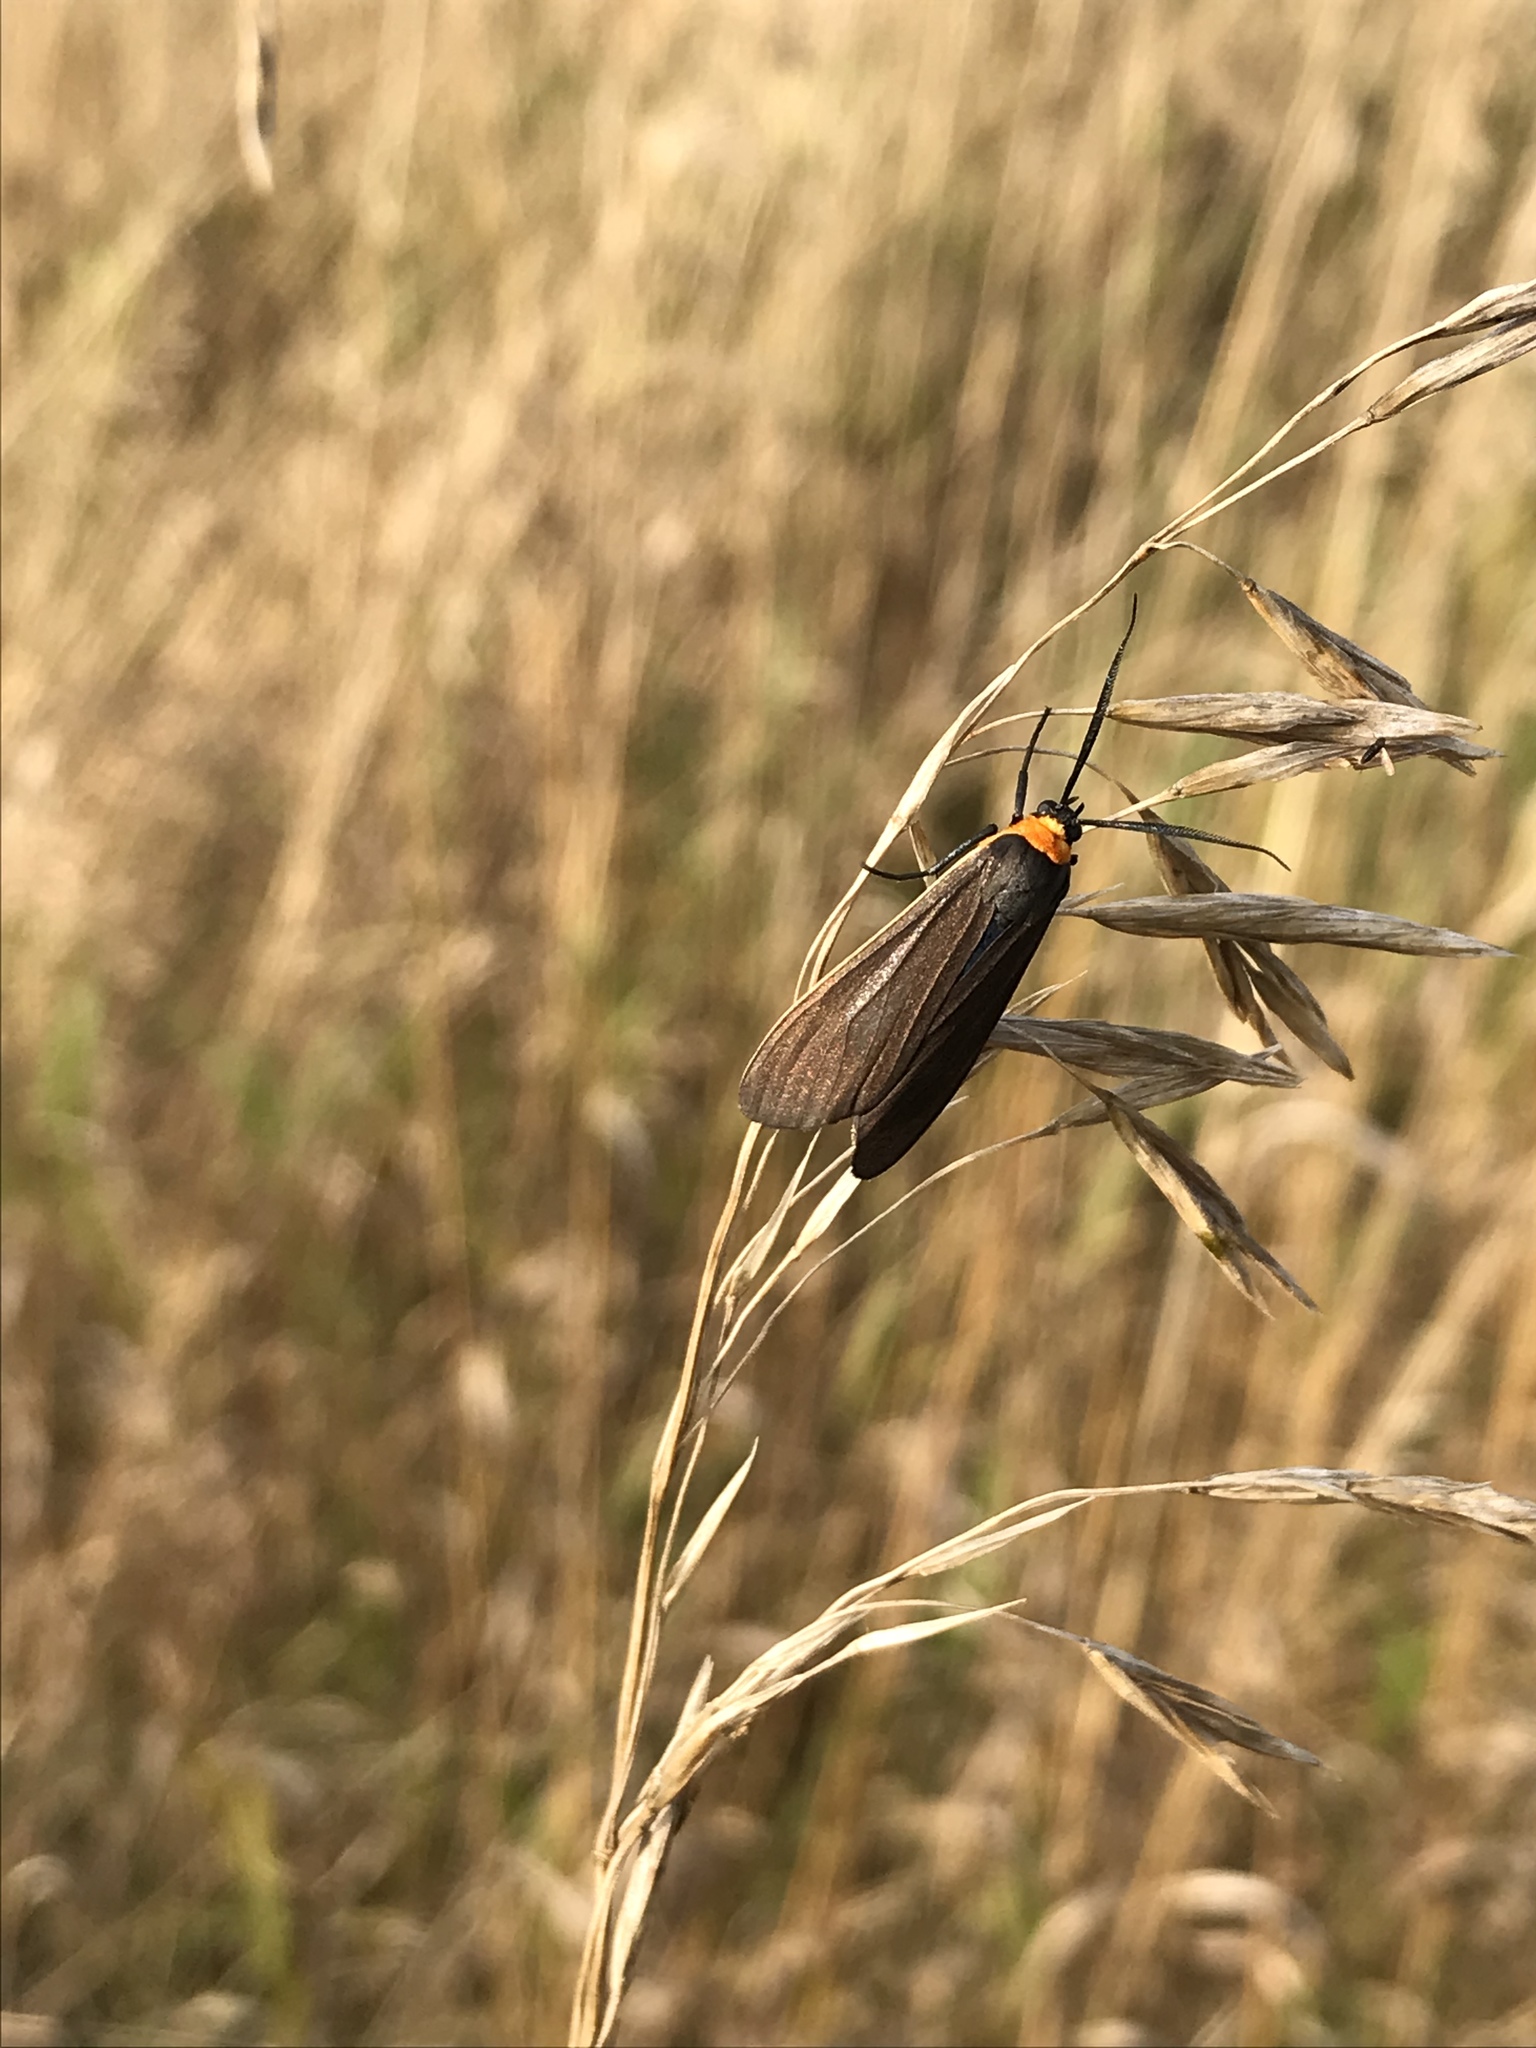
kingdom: Animalia
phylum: Arthropoda
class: Insecta
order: Lepidoptera
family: Erebidae
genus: Cisseps
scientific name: Cisseps fulvicollis
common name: Yellow-collared scape moth
